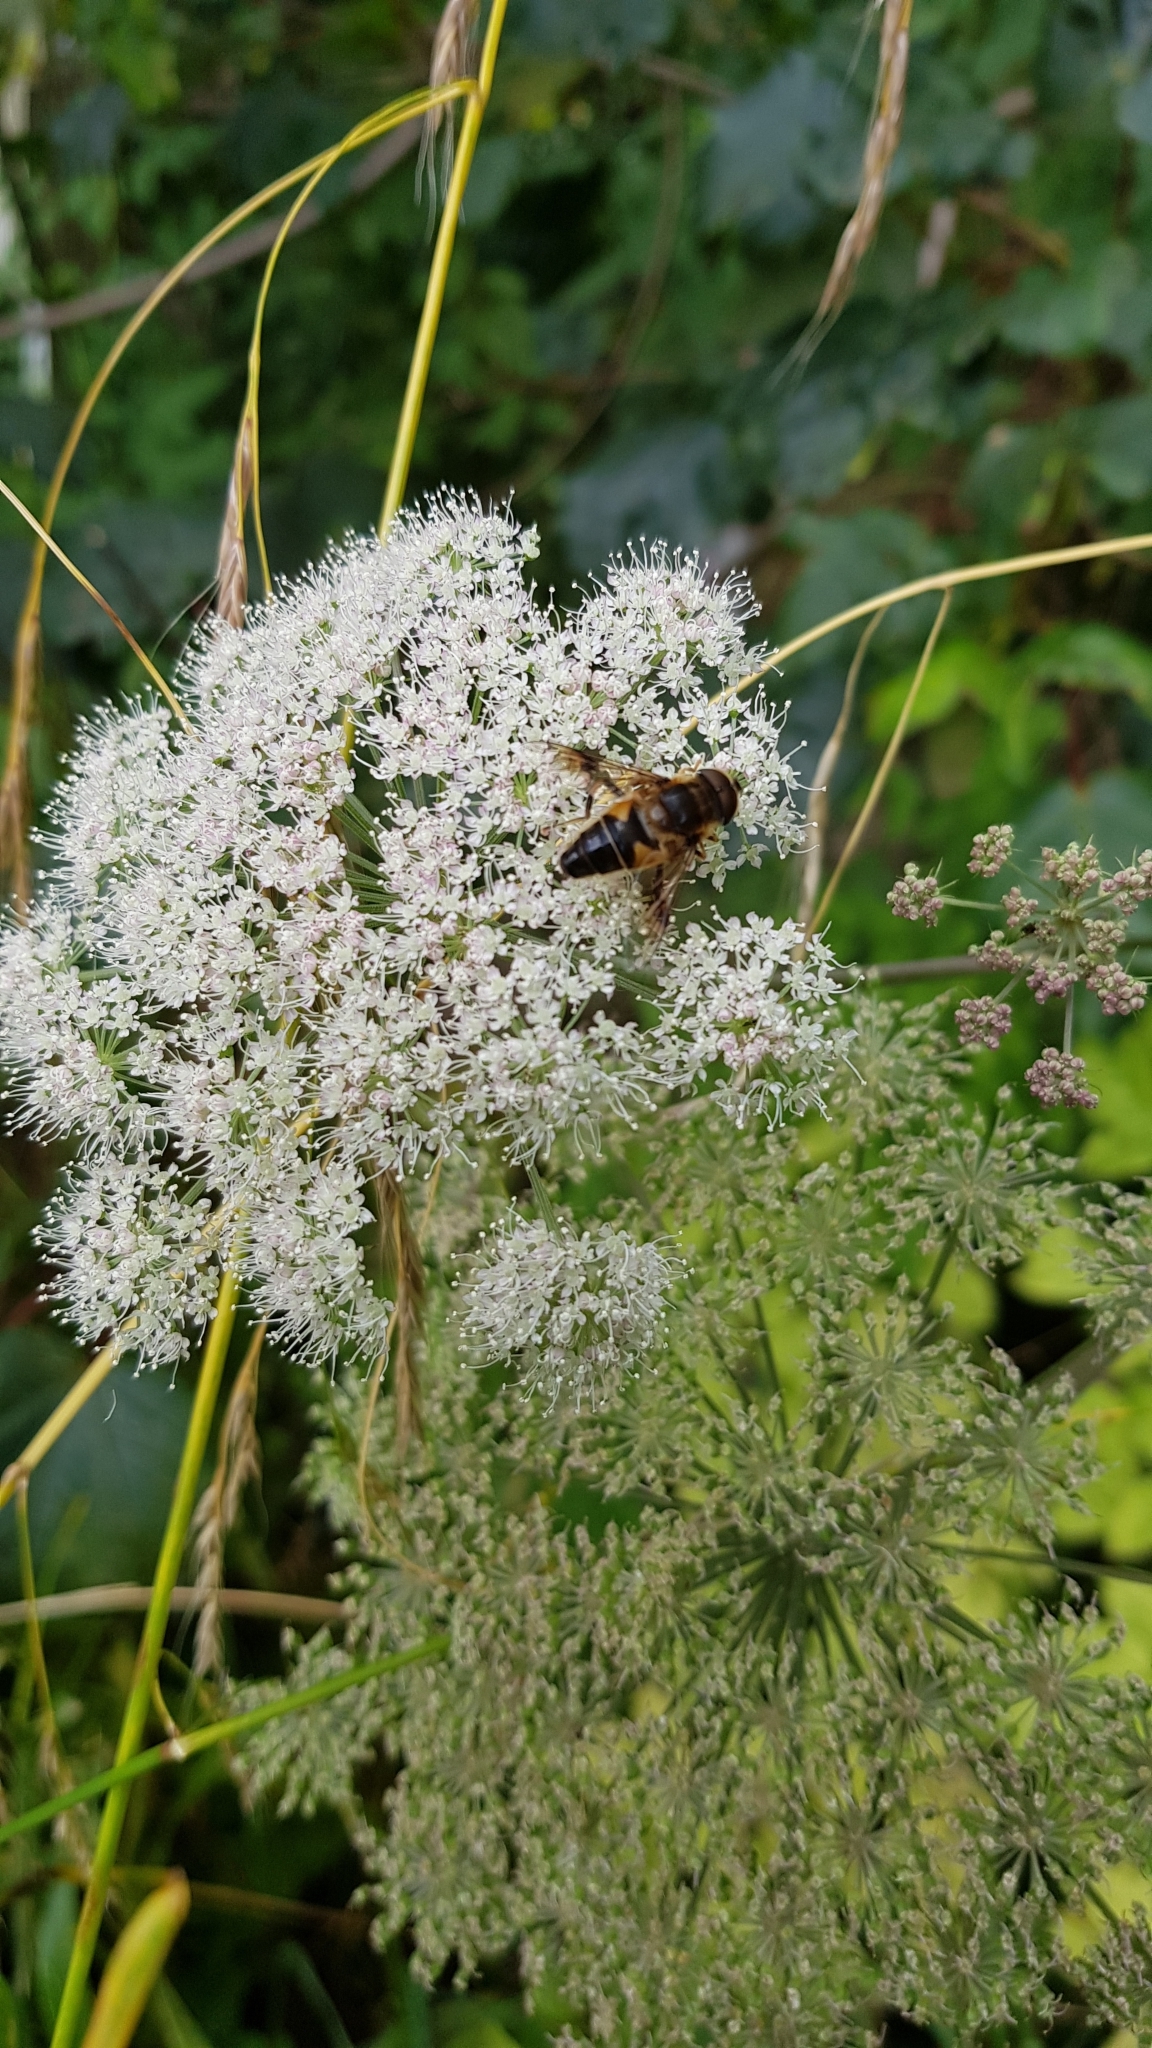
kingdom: Animalia
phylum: Arthropoda
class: Insecta
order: Diptera
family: Syrphidae
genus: Eristalis
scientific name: Eristalis pertinax
